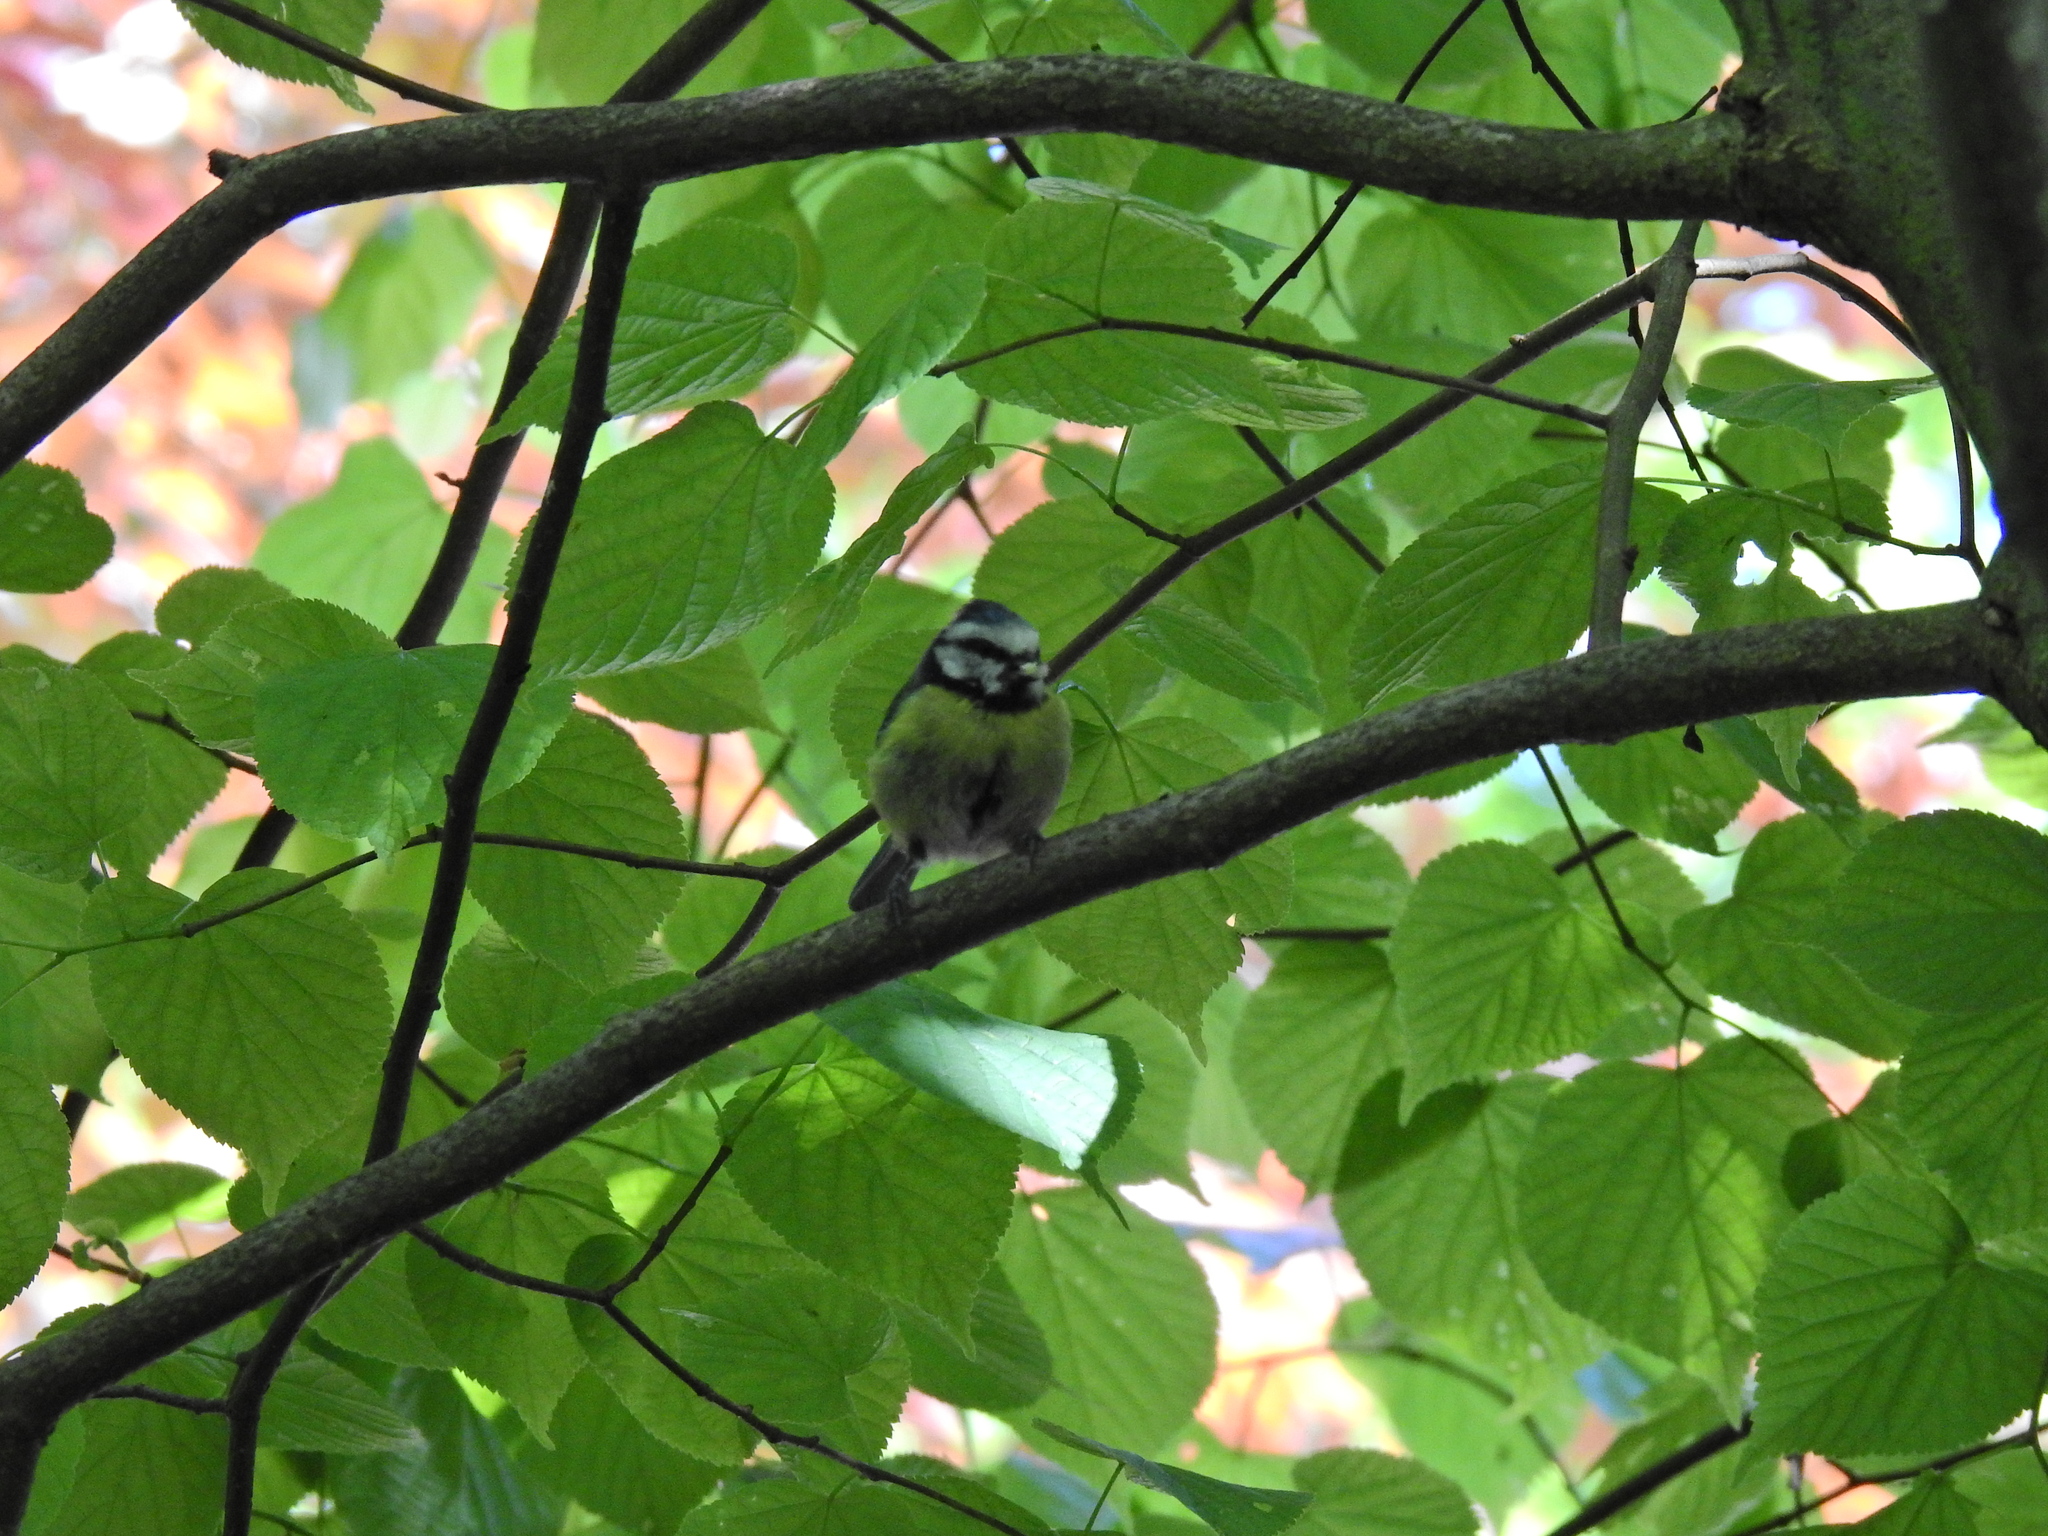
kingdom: Animalia
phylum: Chordata
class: Aves
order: Passeriformes
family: Paridae
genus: Cyanistes
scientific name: Cyanistes caeruleus
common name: Eurasian blue tit
